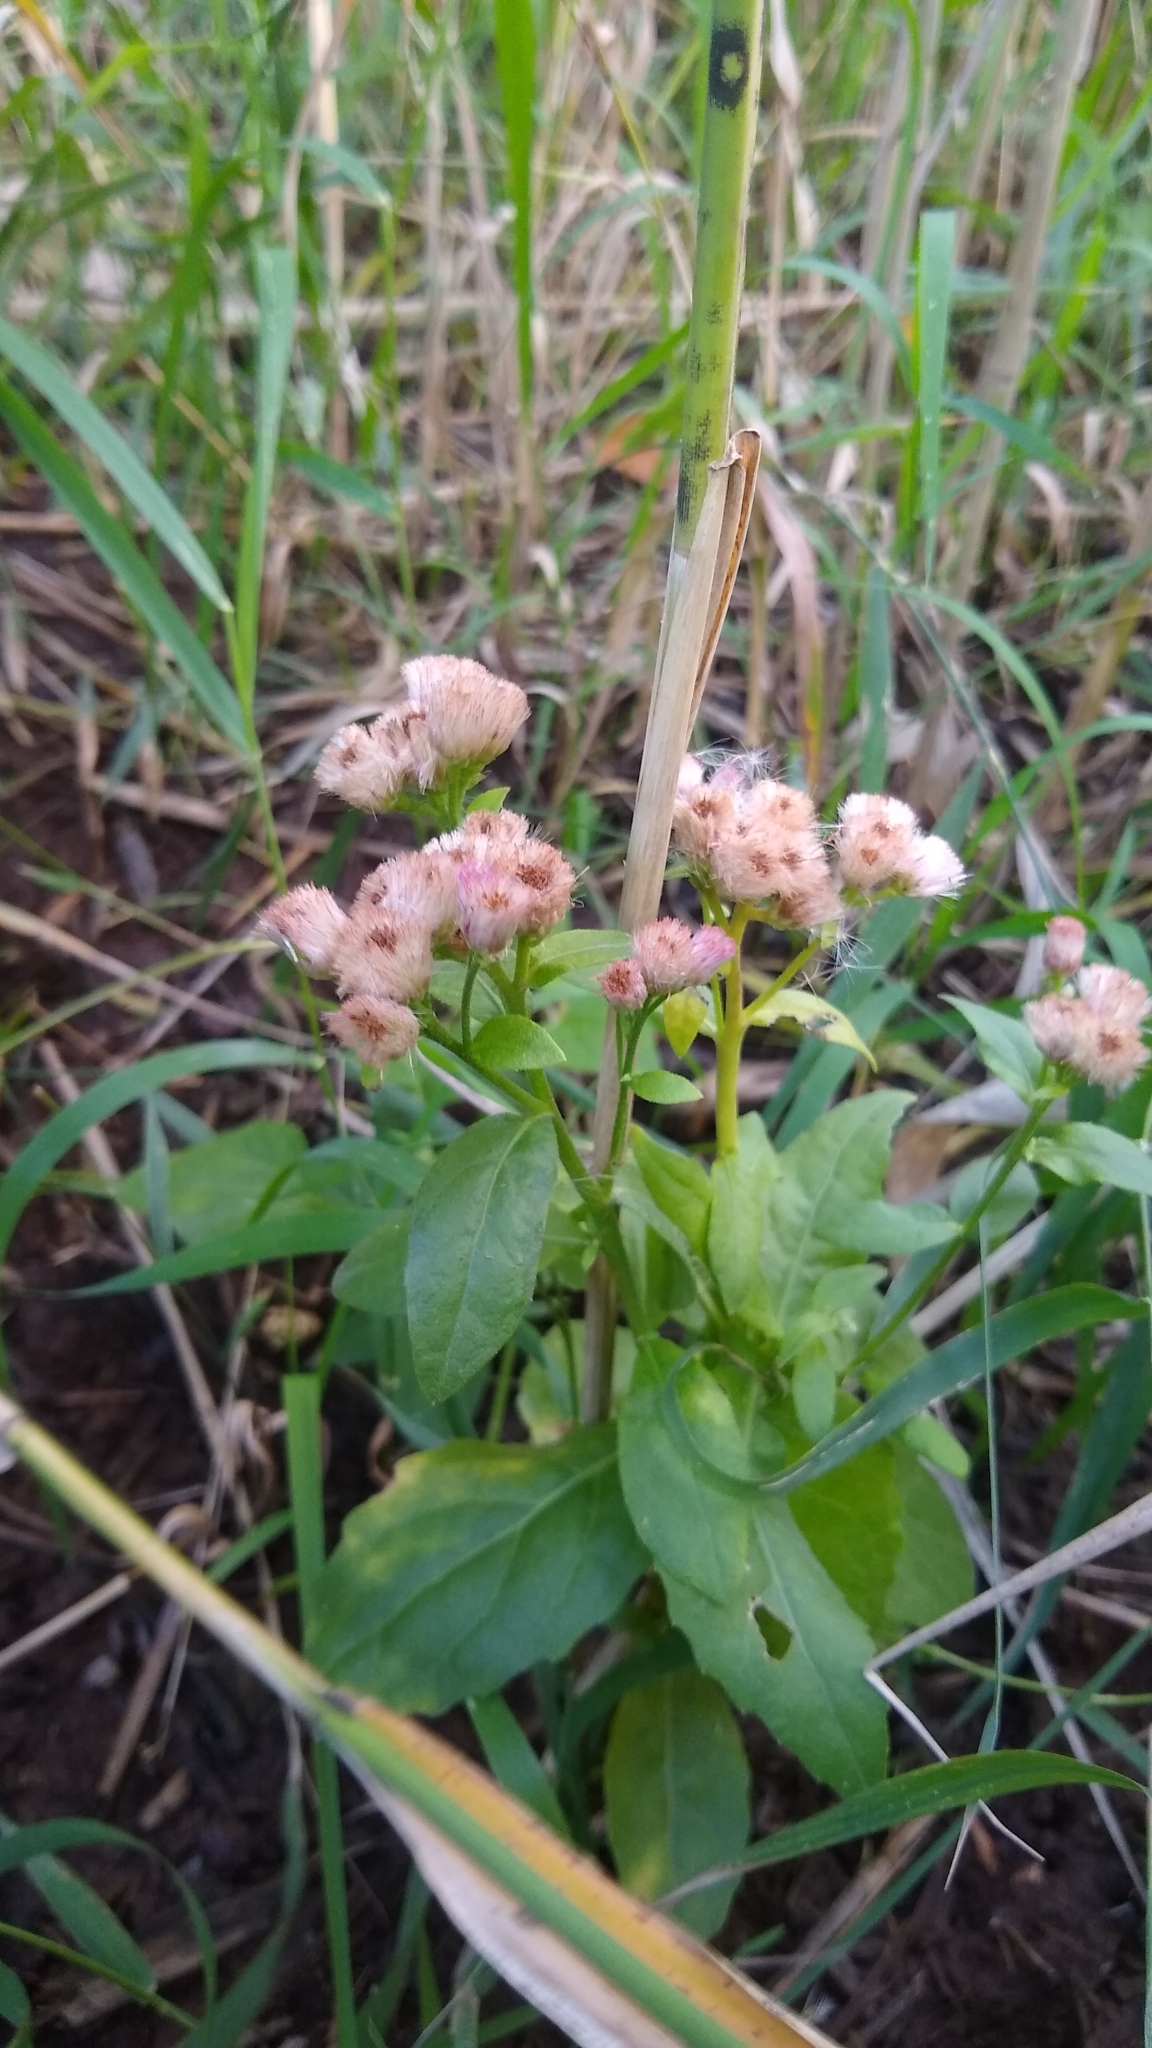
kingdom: Plantae
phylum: Tracheophyta
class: Magnoliopsida
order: Asterales
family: Asteraceae
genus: Pluchea
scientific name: Pluchea odorata
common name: Saltmarsh fleabane
